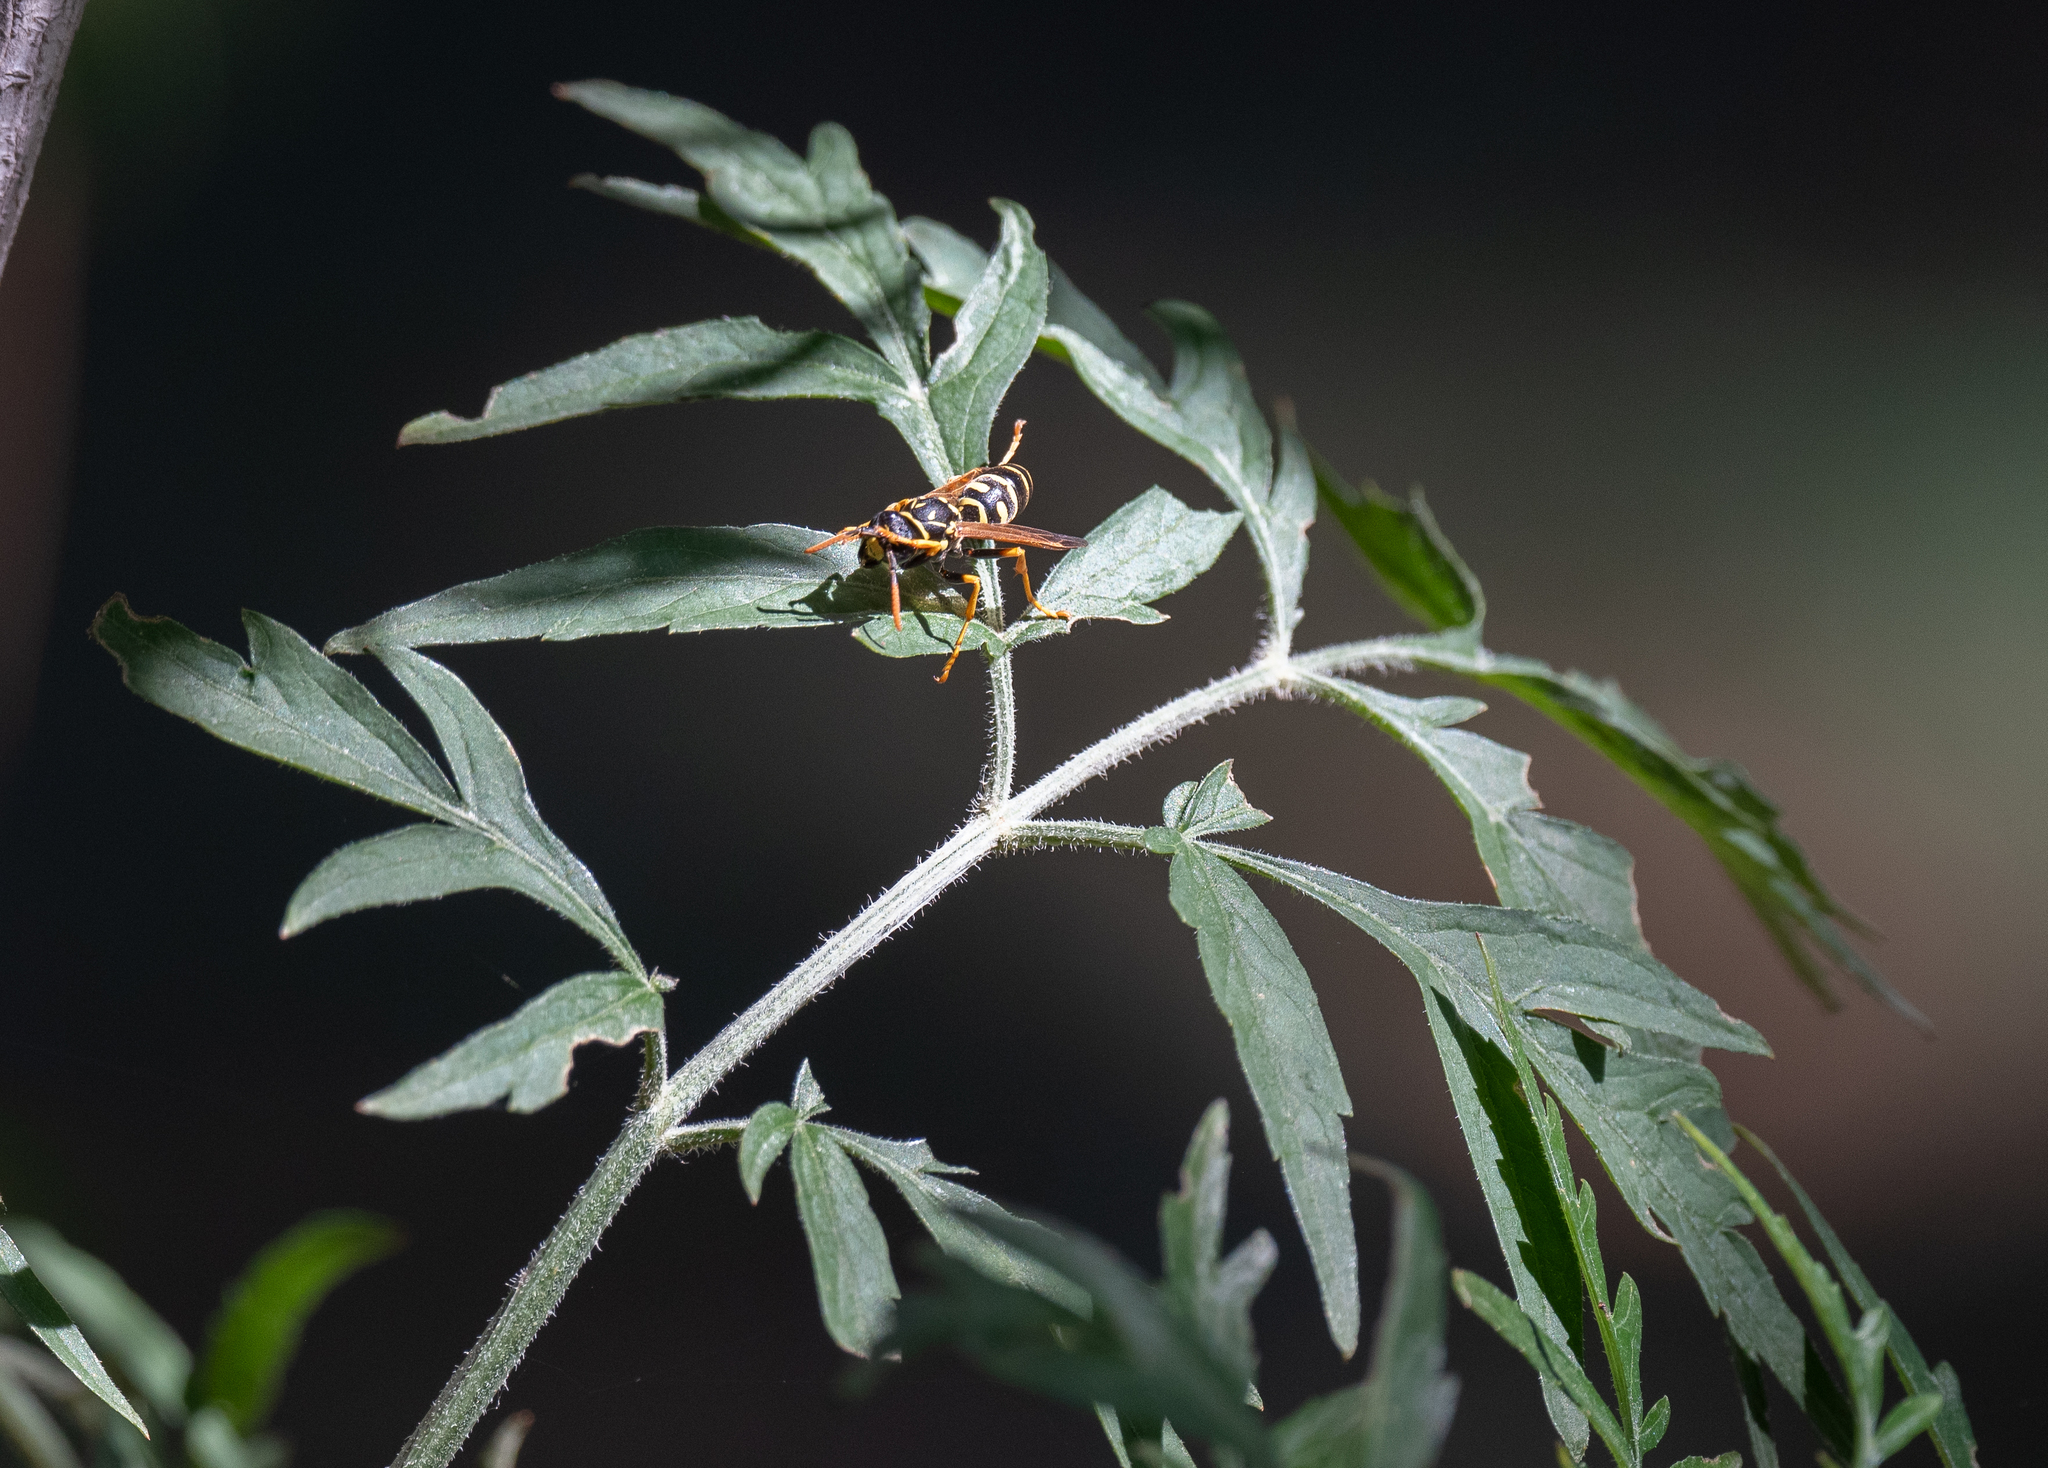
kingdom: Animalia
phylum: Arthropoda
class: Insecta
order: Hymenoptera
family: Eumenidae
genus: Polistes
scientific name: Polistes dominula
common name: Paper wasp
